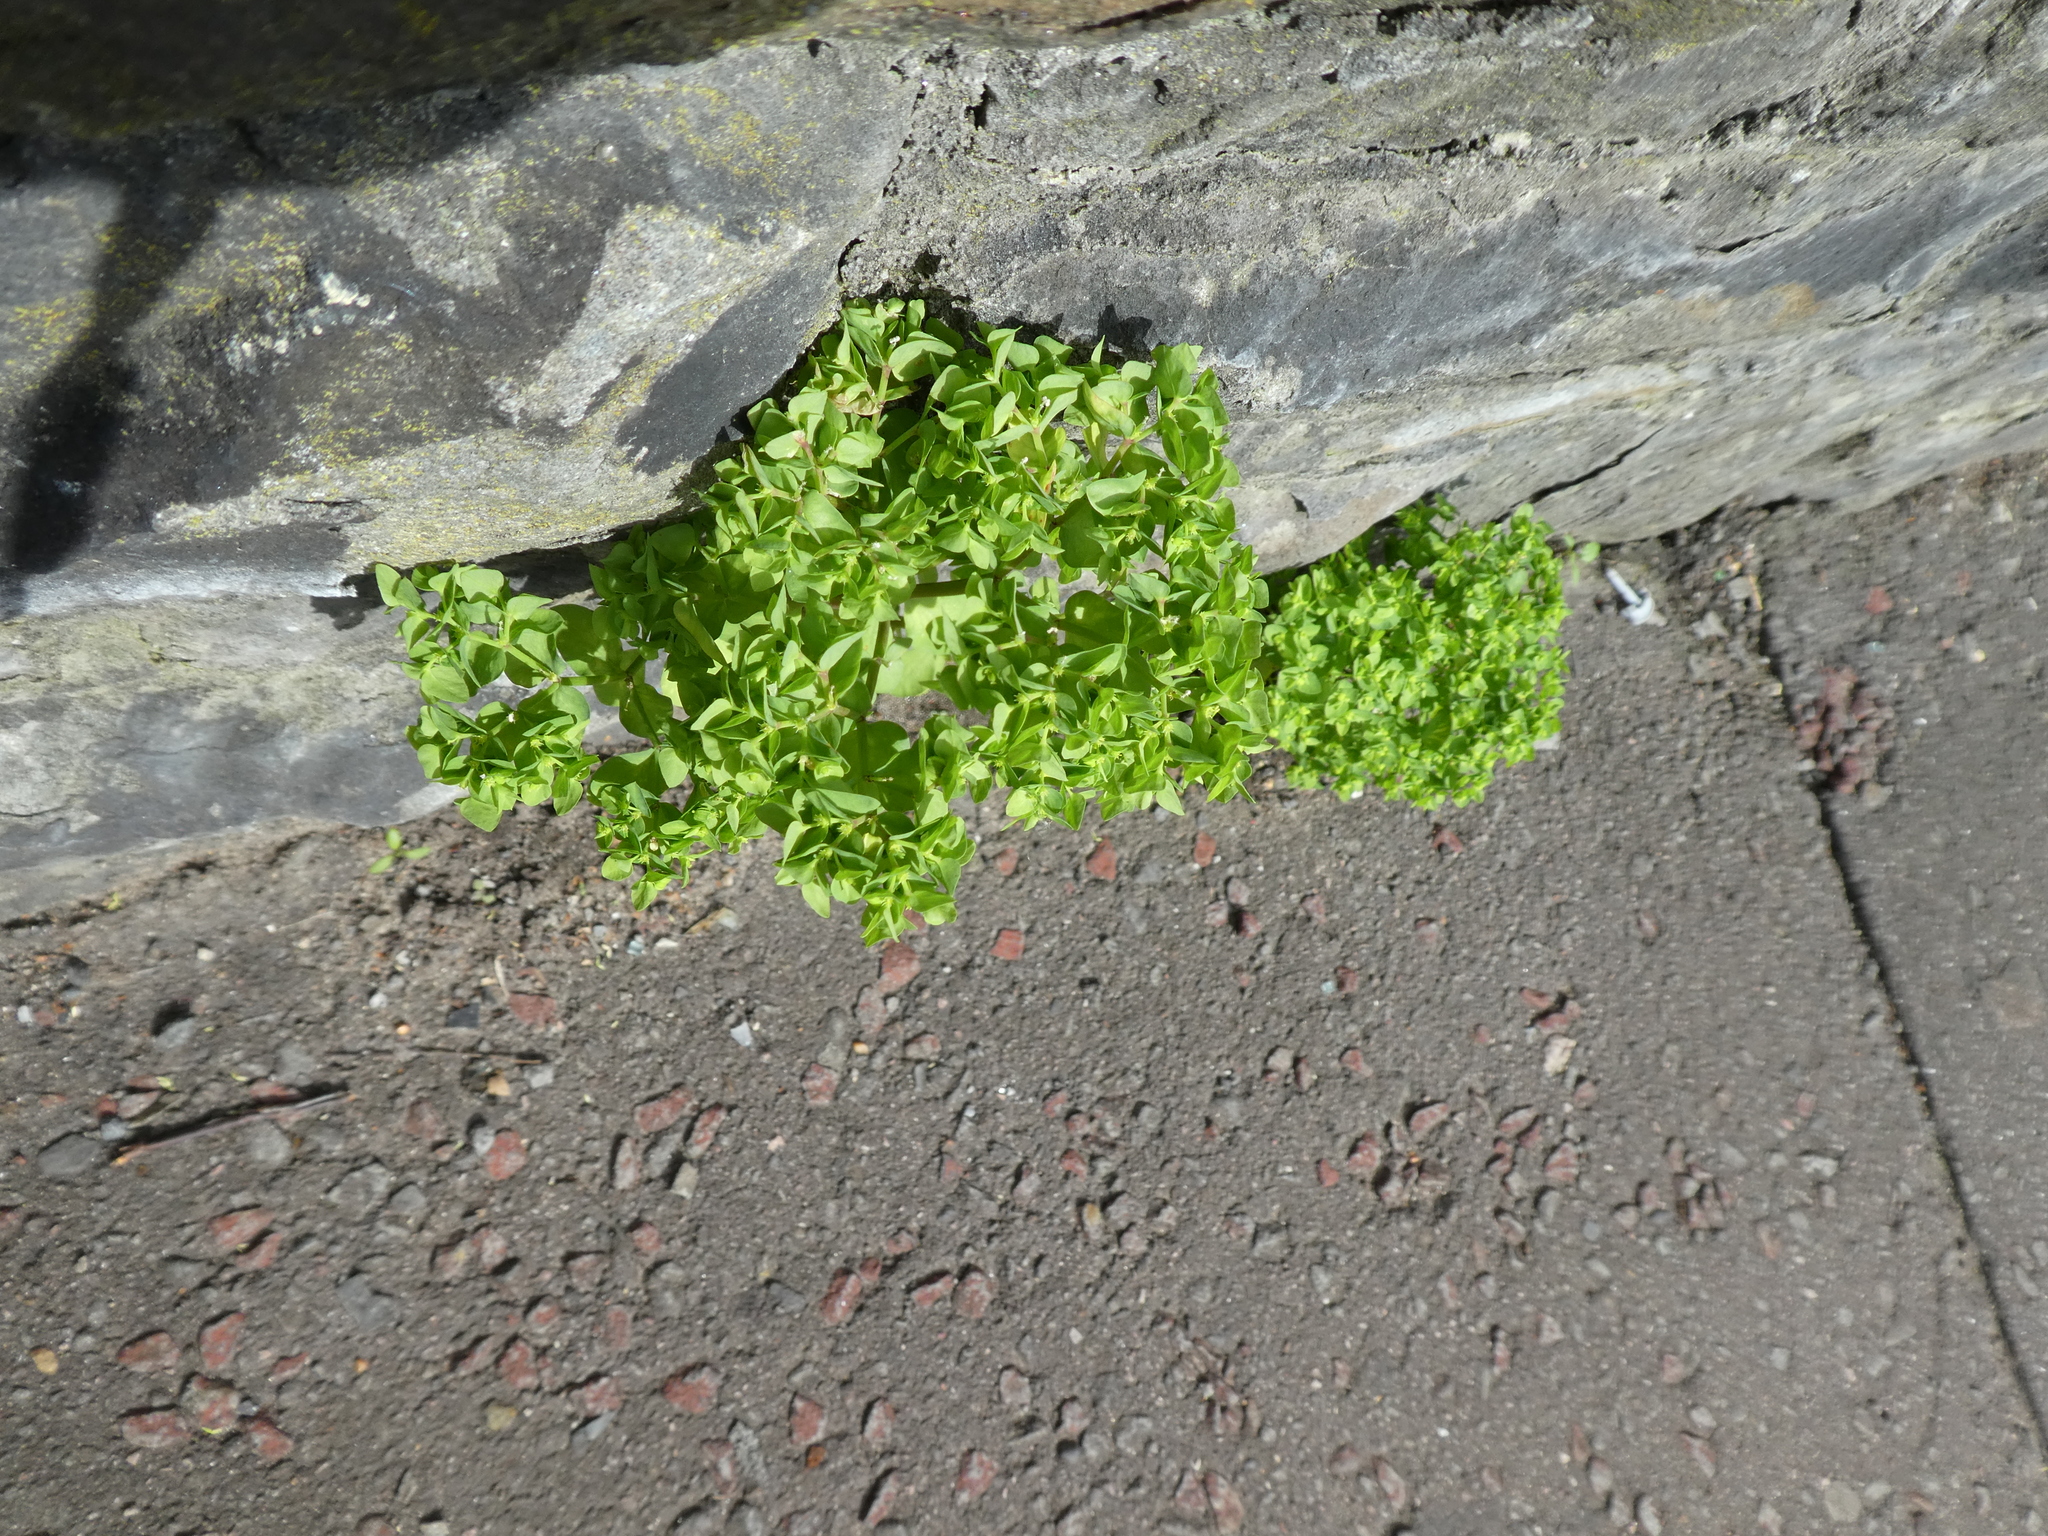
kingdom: Plantae
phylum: Tracheophyta
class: Magnoliopsida
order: Malpighiales
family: Euphorbiaceae
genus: Euphorbia
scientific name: Euphorbia peplus
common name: Petty spurge
